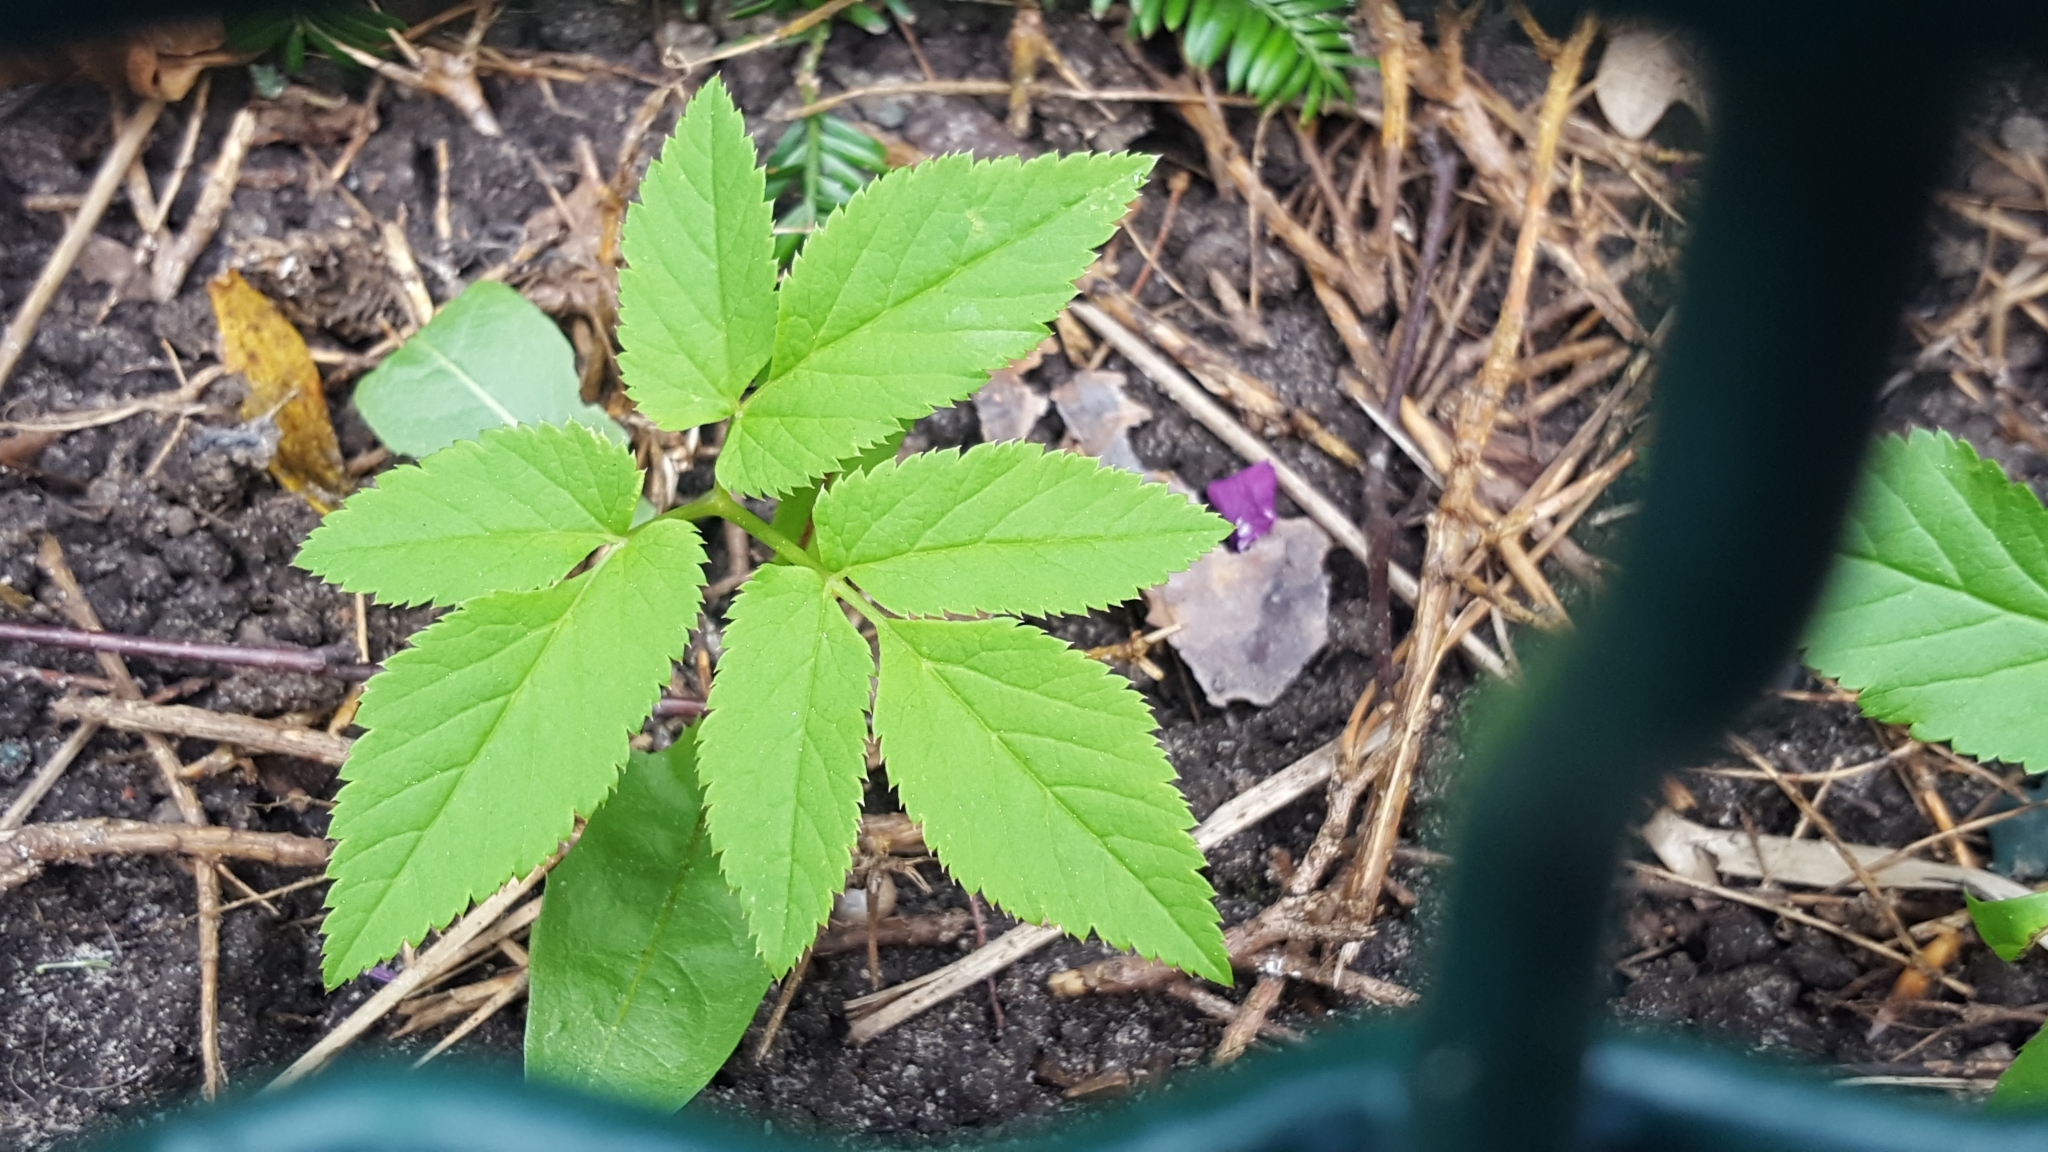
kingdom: Plantae
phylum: Tracheophyta
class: Magnoliopsida
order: Apiales
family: Apiaceae
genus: Aegopodium
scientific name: Aegopodium podagraria
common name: Ground-elder
